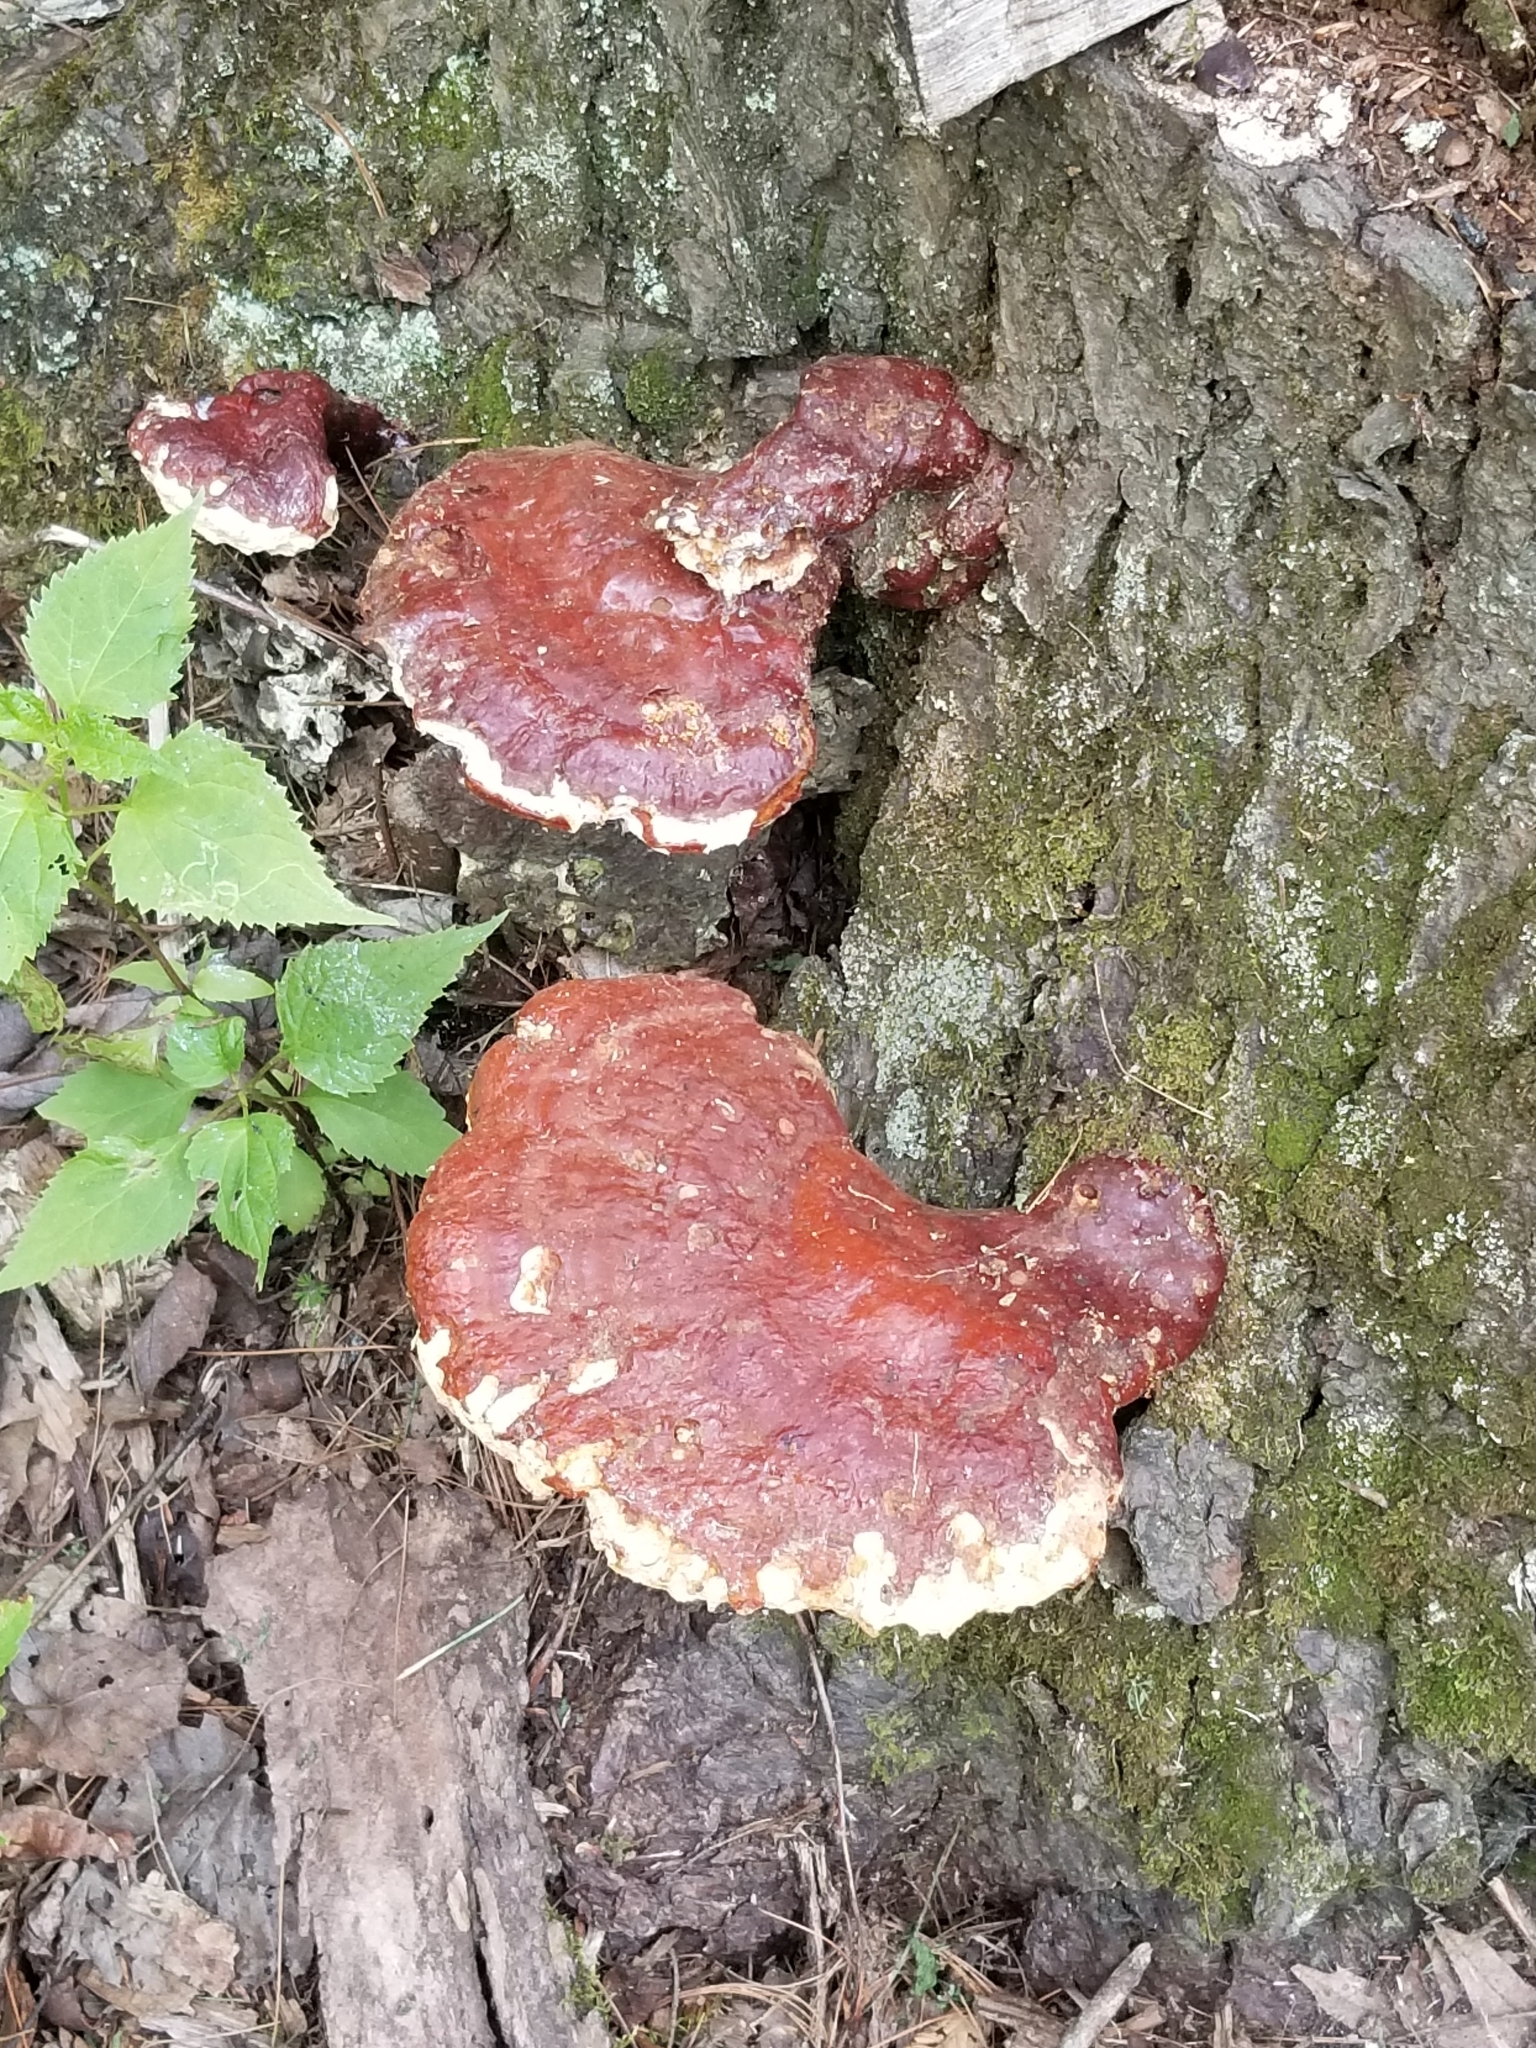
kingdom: Fungi
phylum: Basidiomycota
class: Agaricomycetes
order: Polyporales
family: Polyporaceae
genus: Ganoderma
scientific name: Ganoderma tsugae
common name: Hemlock varnish shelf
